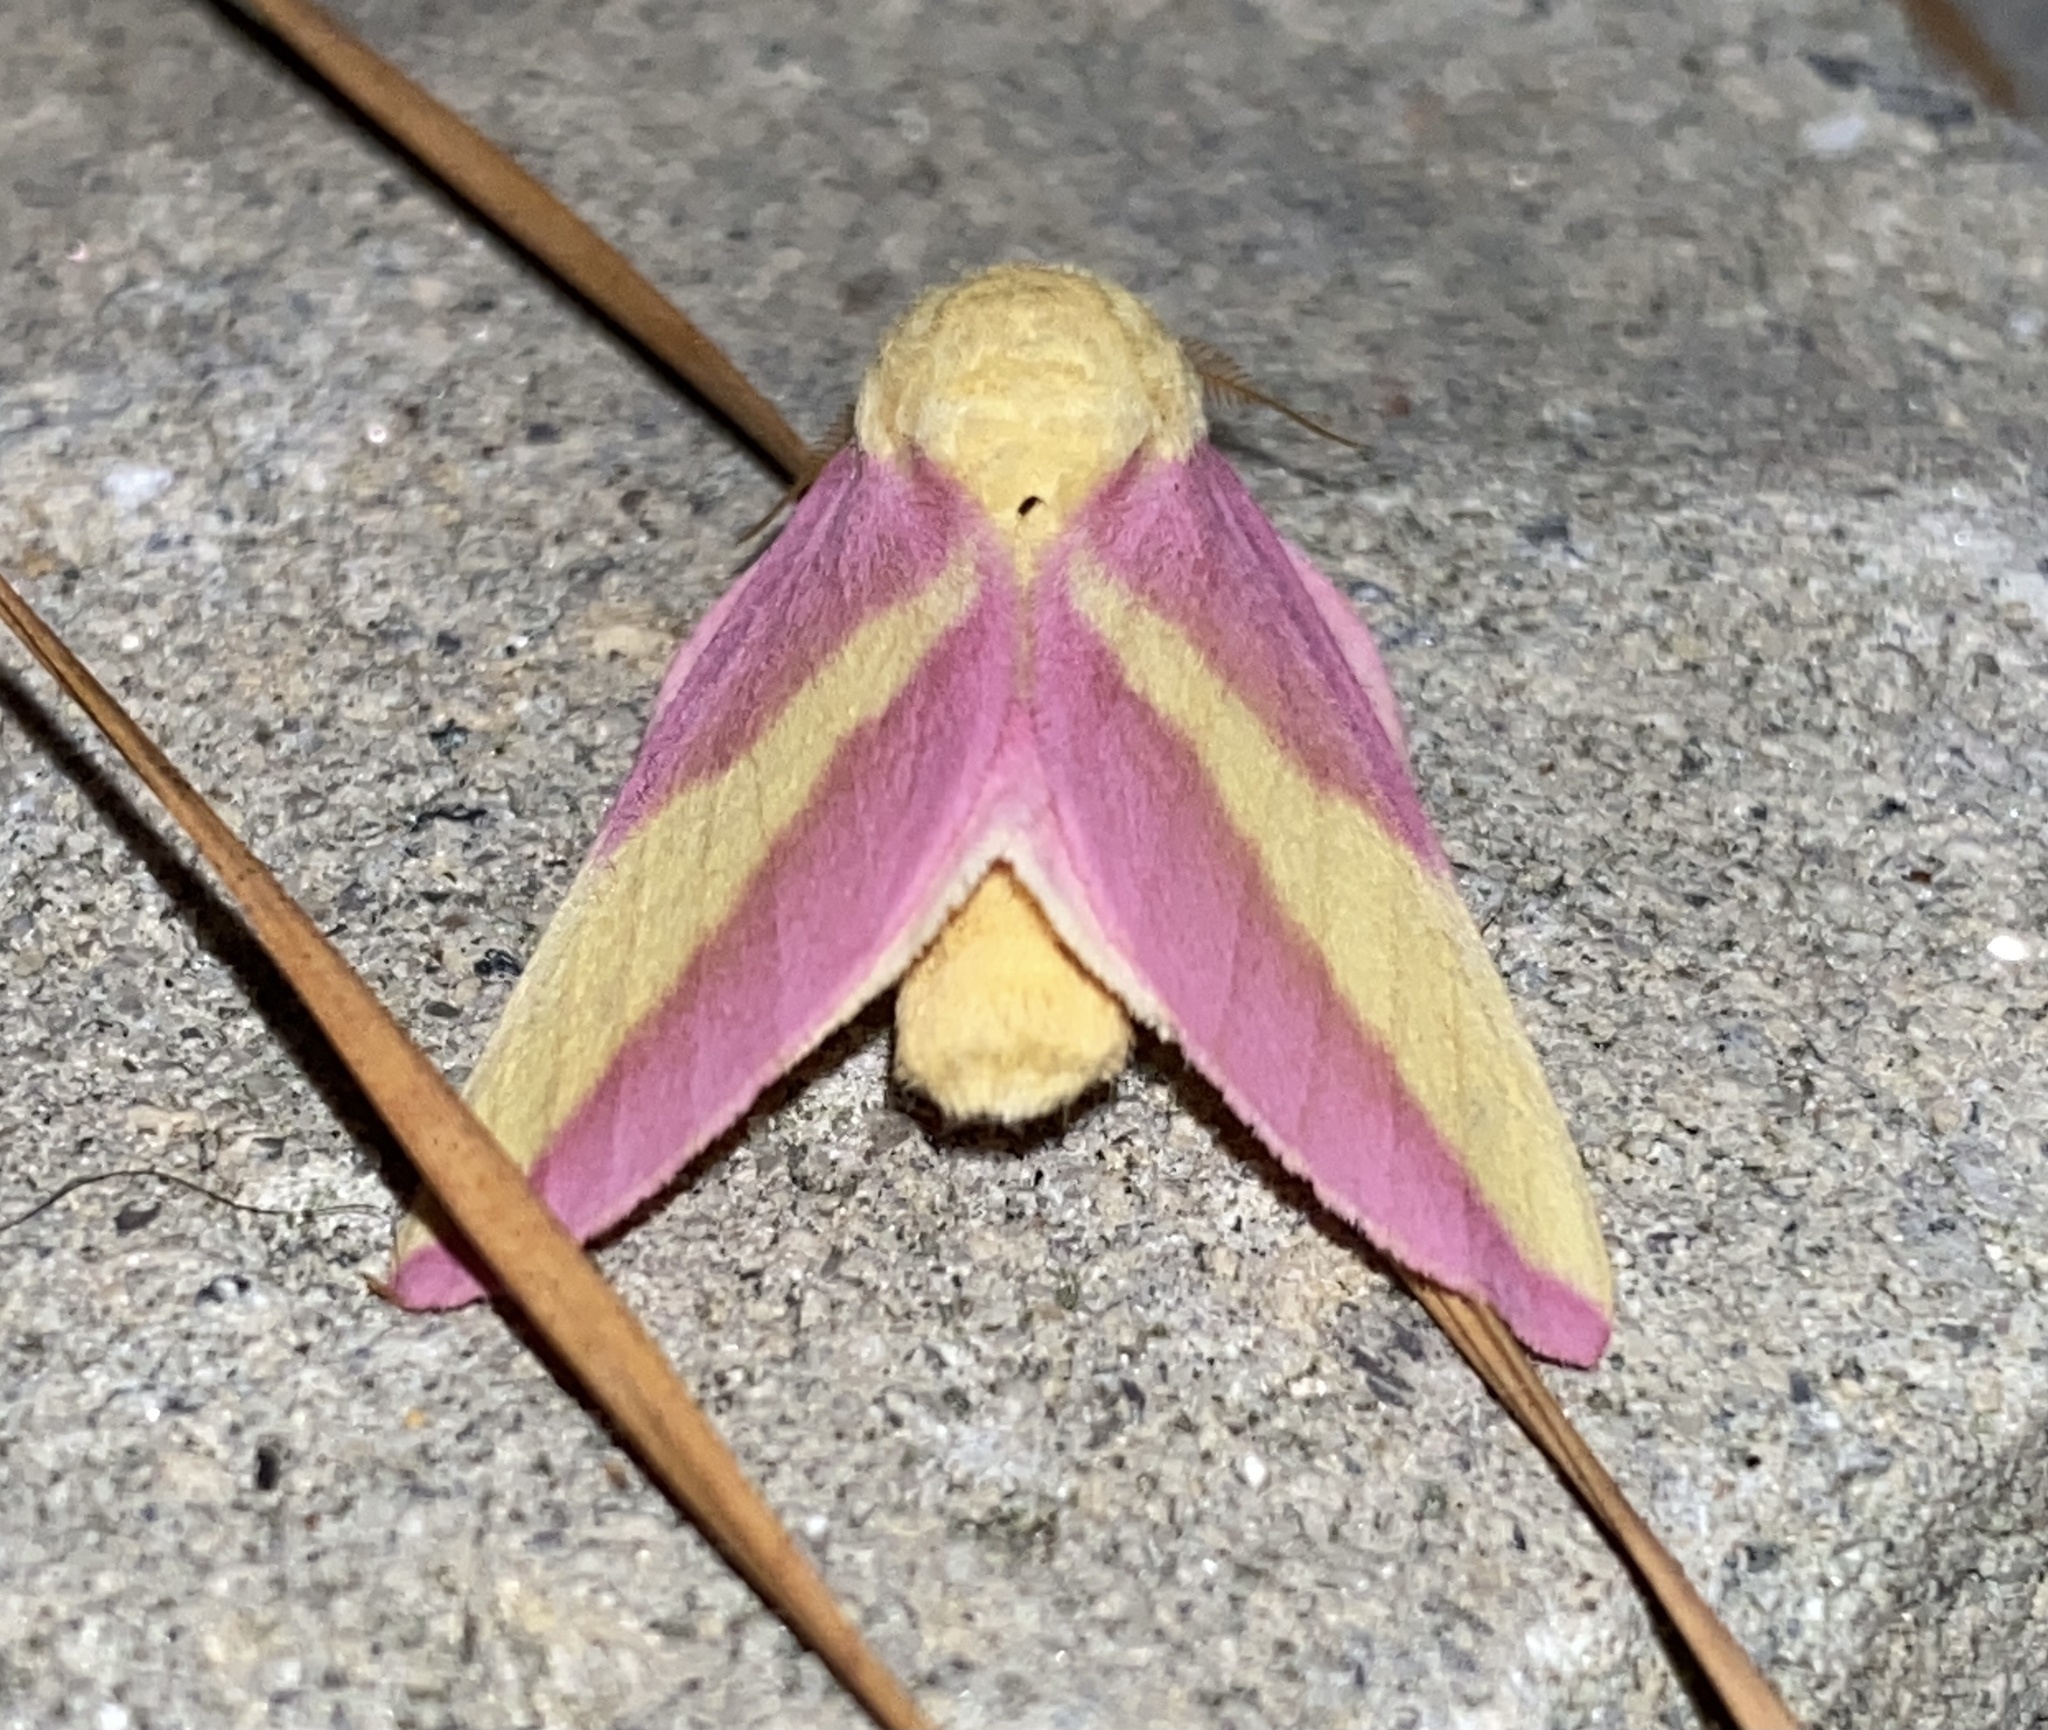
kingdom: Animalia
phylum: Arthropoda
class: Insecta
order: Lepidoptera
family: Saturniidae
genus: Dryocampa
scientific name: Dryocampa rubicunda
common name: Rosy maple moth
